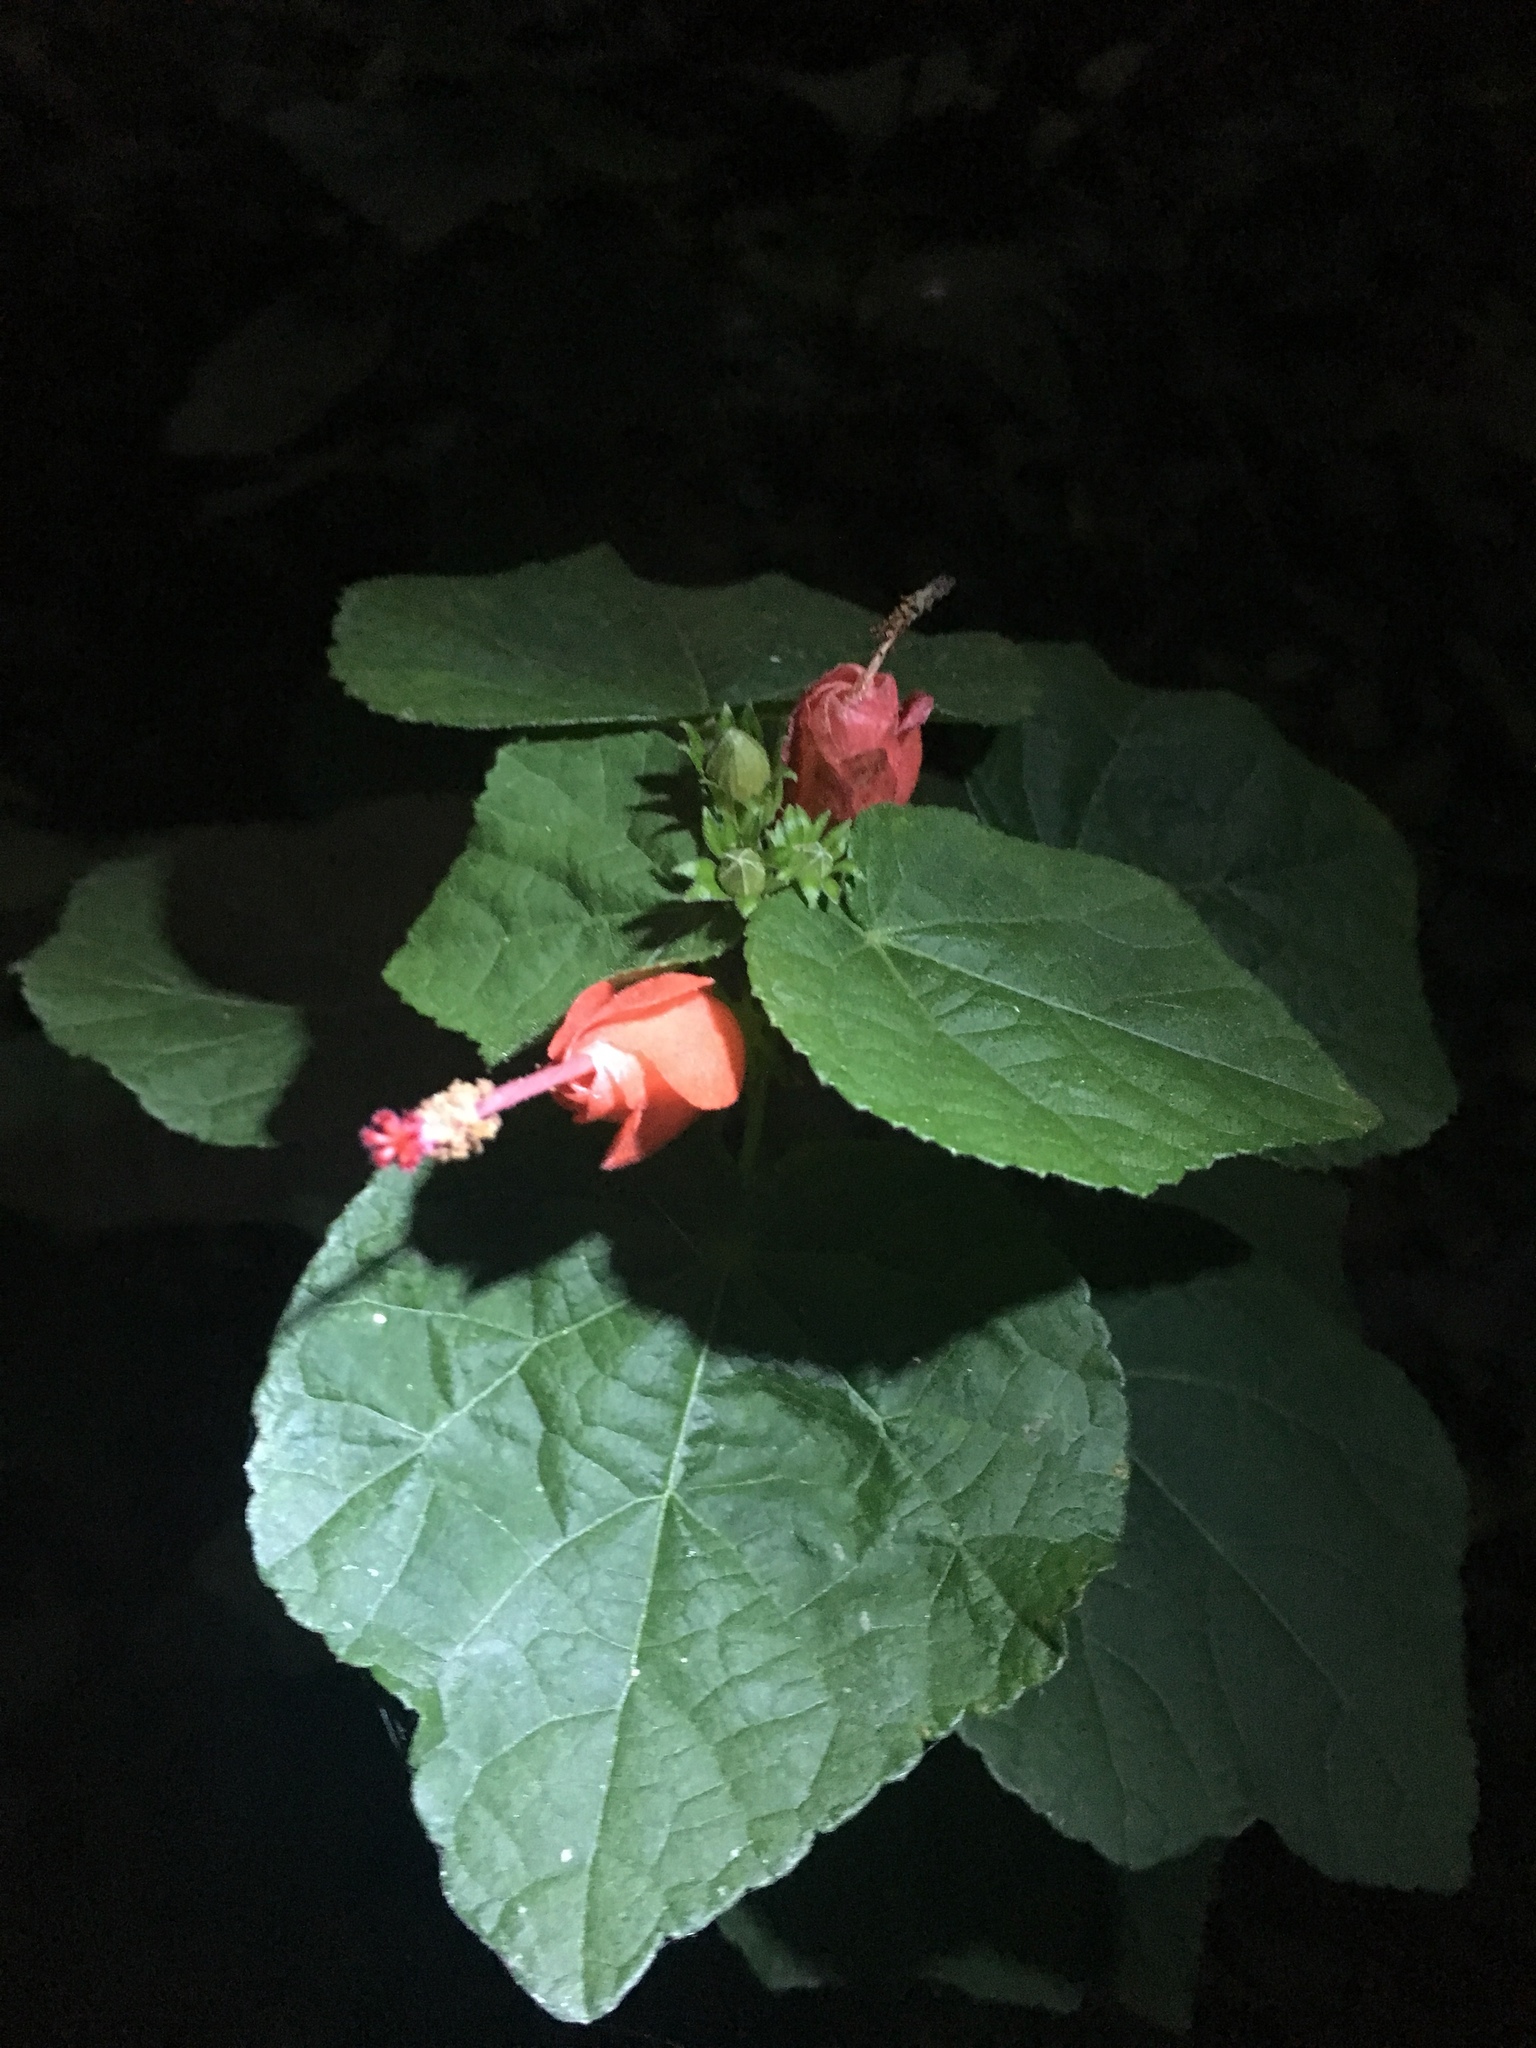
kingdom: Plantae
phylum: Tracheophyta
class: Magnoliopsida
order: Malvales
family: Malvaceae
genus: Malvaviscus
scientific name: Malvaviscus arboreus
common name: Wax mallow
